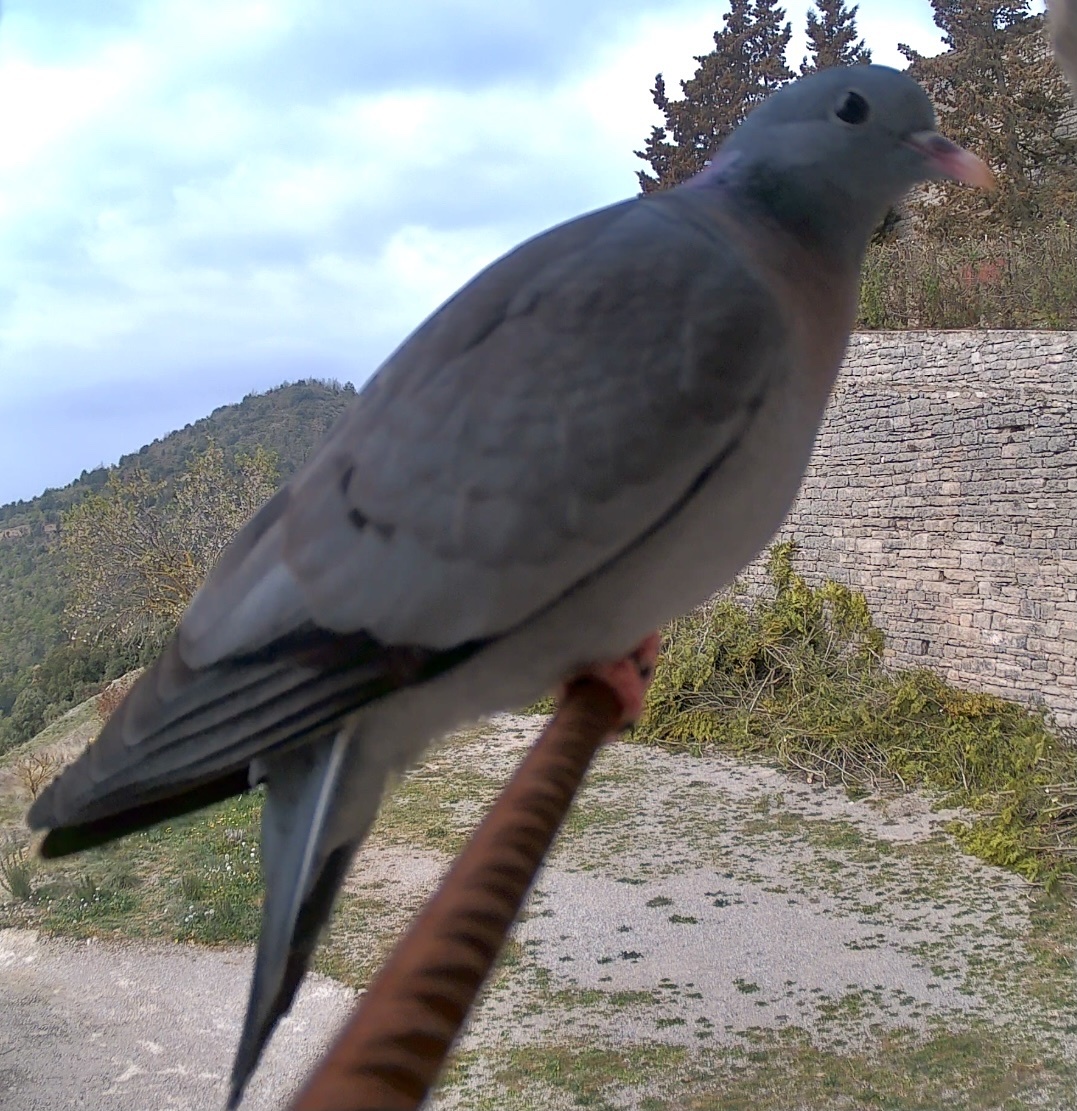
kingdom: Animalia
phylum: Chordata
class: Aves
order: Columbiformes
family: Columbidae
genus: Columba
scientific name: Columba oenas
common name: Stock dove
